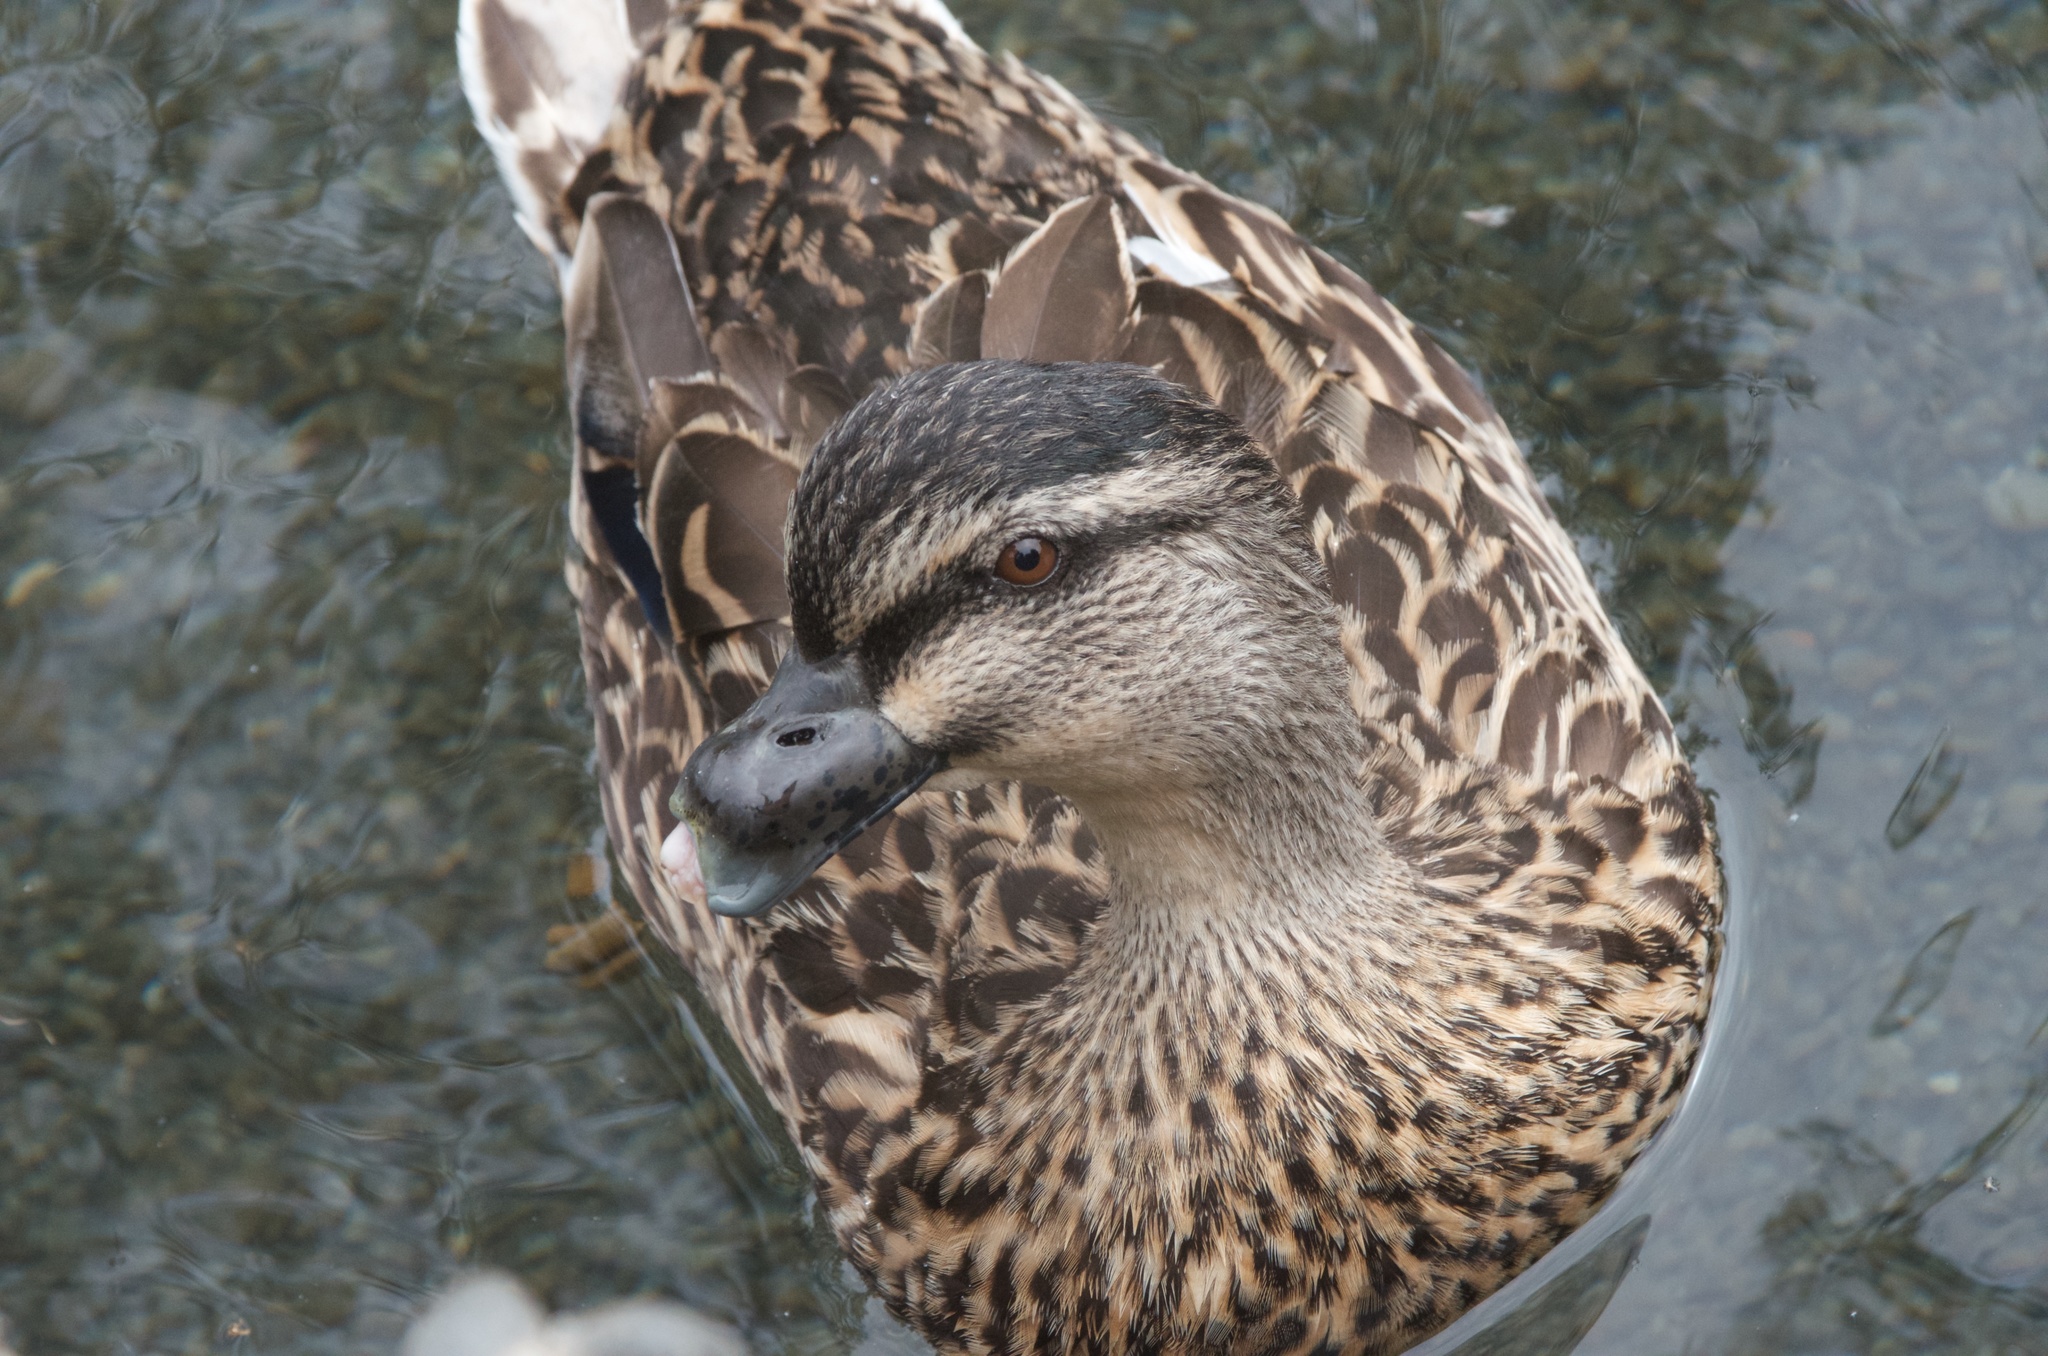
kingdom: Animalia
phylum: Chordata
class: Aves
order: Anseriformes
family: Anatidae
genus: Anas
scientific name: Anas platyrhynchos
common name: Mallard
